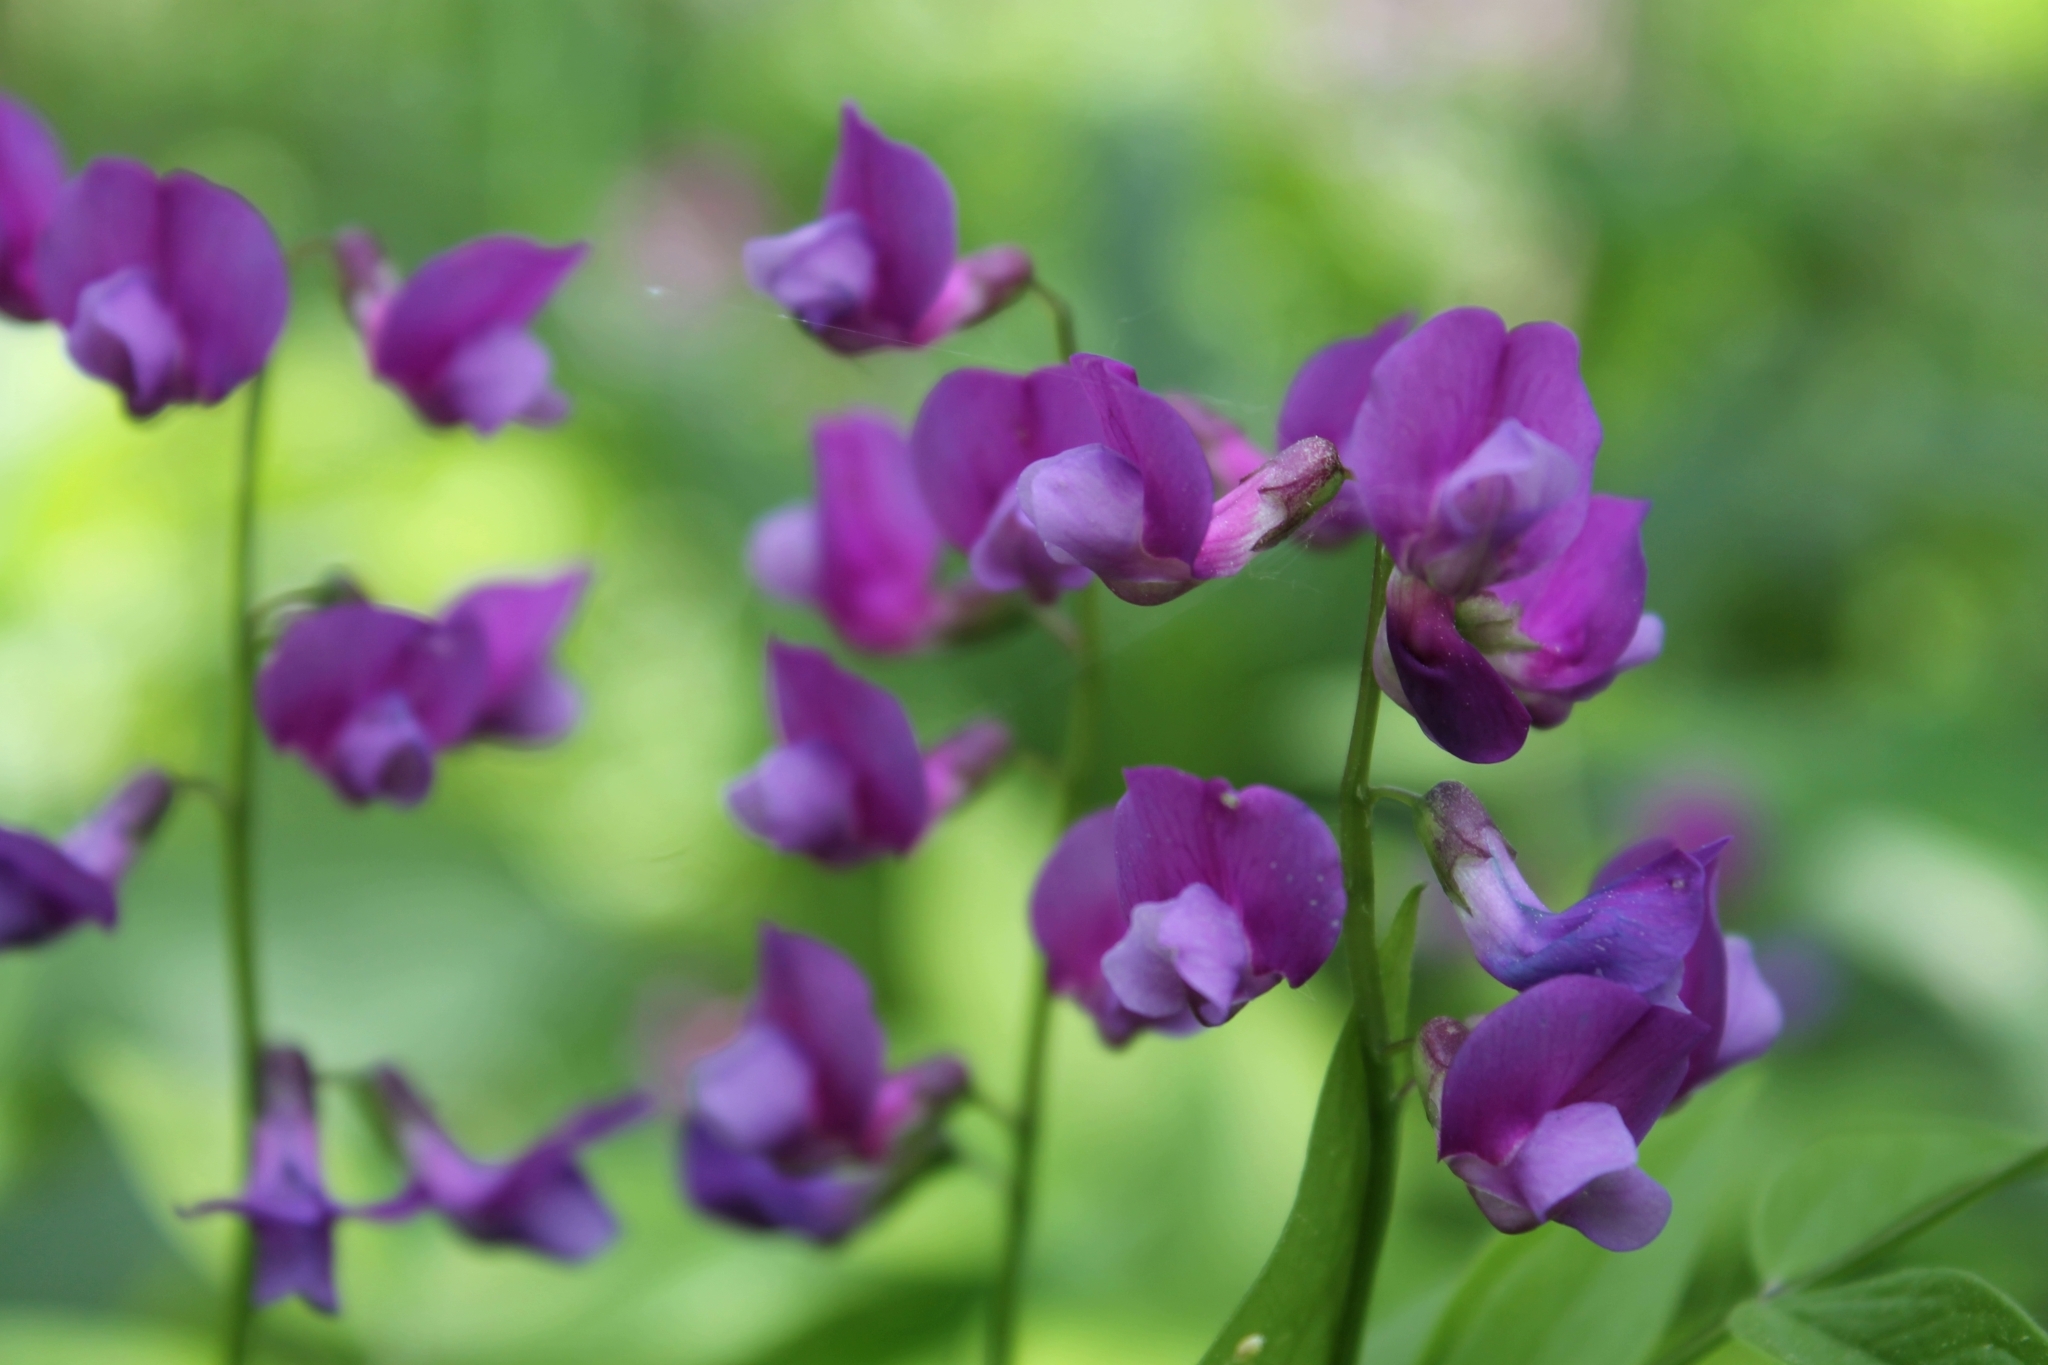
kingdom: Plantae
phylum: Tracheophyta
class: Magnoliopsida
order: Fabales
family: Fabaceae
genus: Lathyrus
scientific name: Lathyrus vernus
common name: Spring pea
